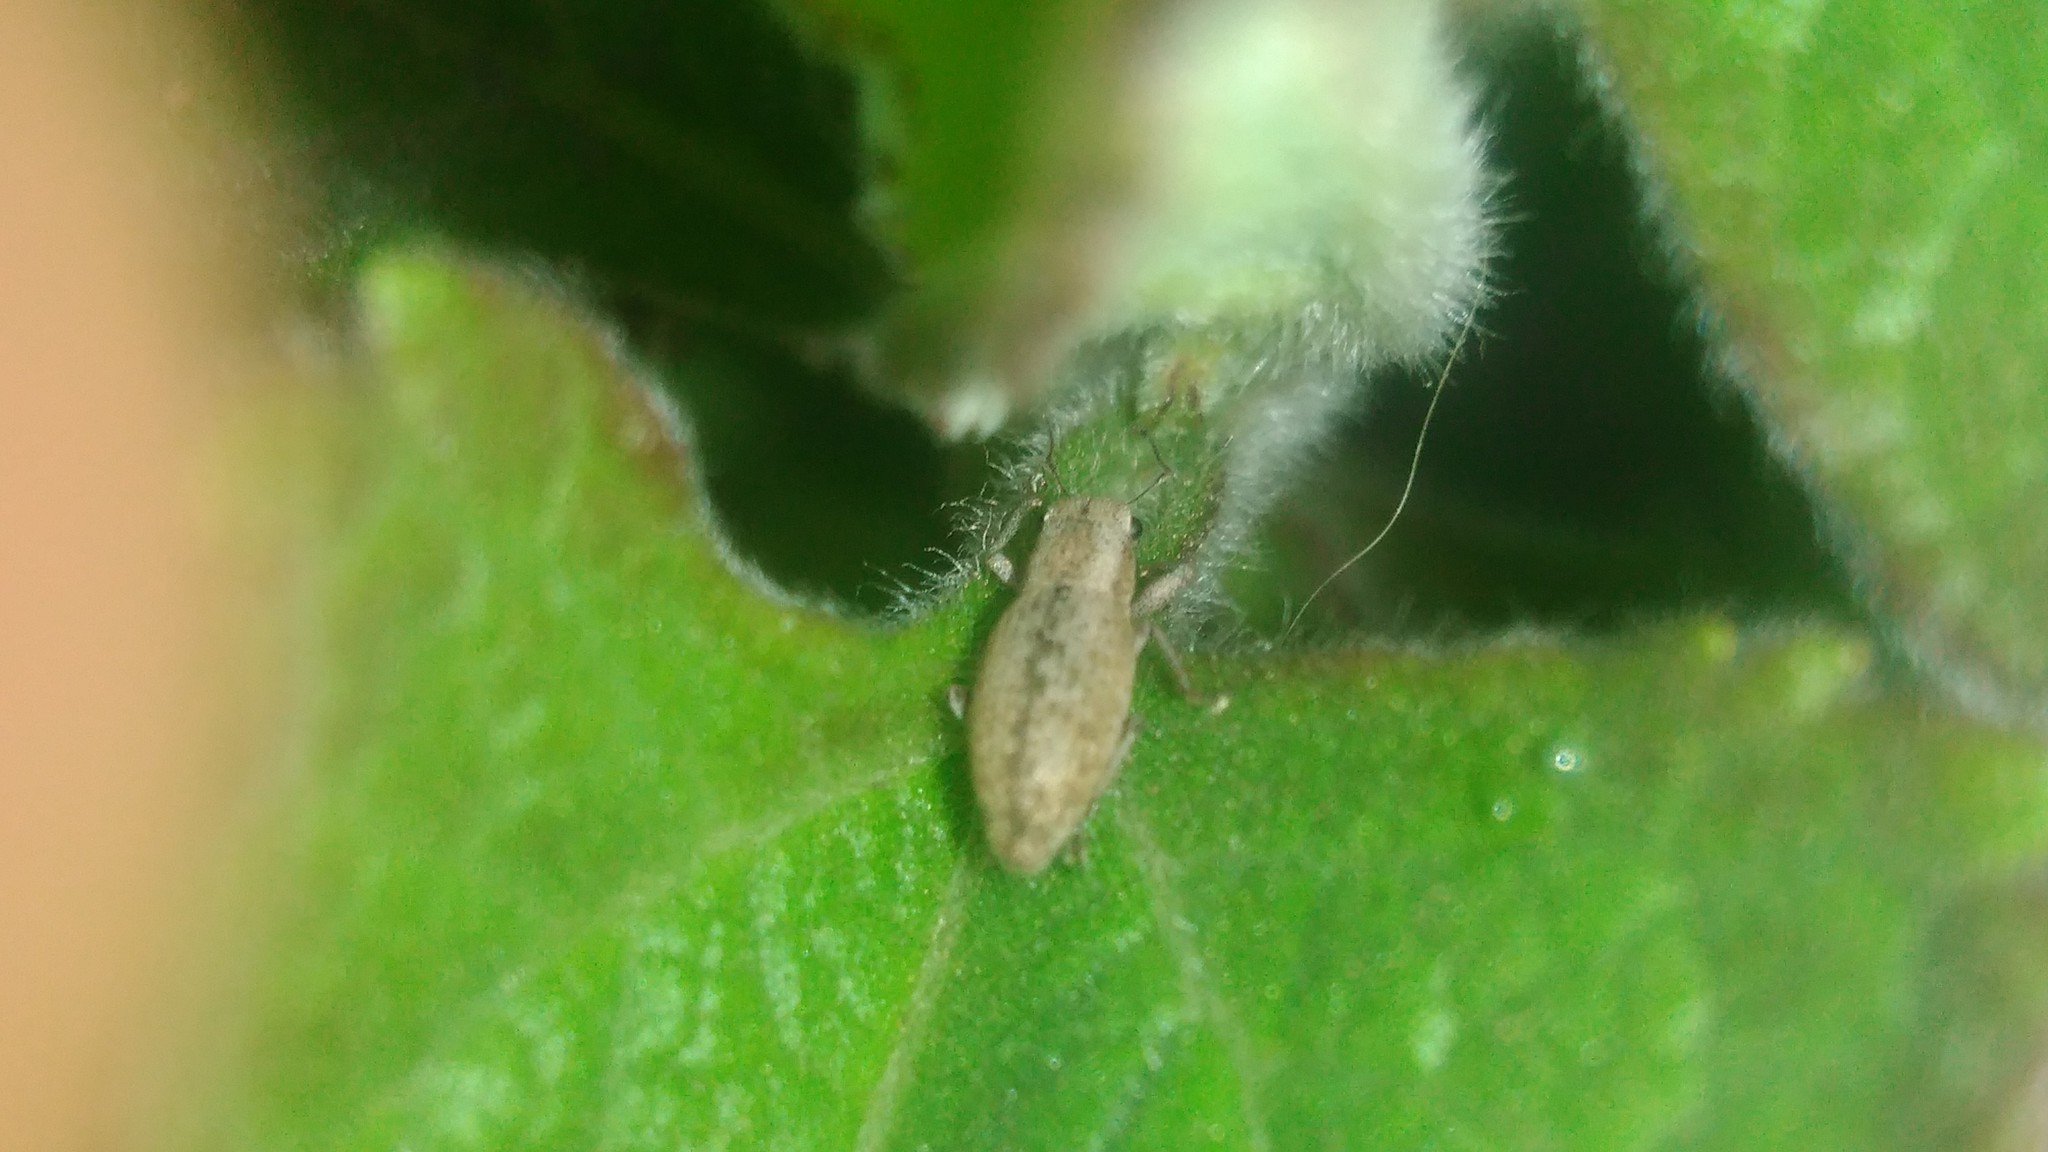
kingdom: Animalia
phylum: Arthropoda
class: Insecta
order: Coleoptera
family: Curculionidae
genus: Aramigus
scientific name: Aramigus tessellatus
